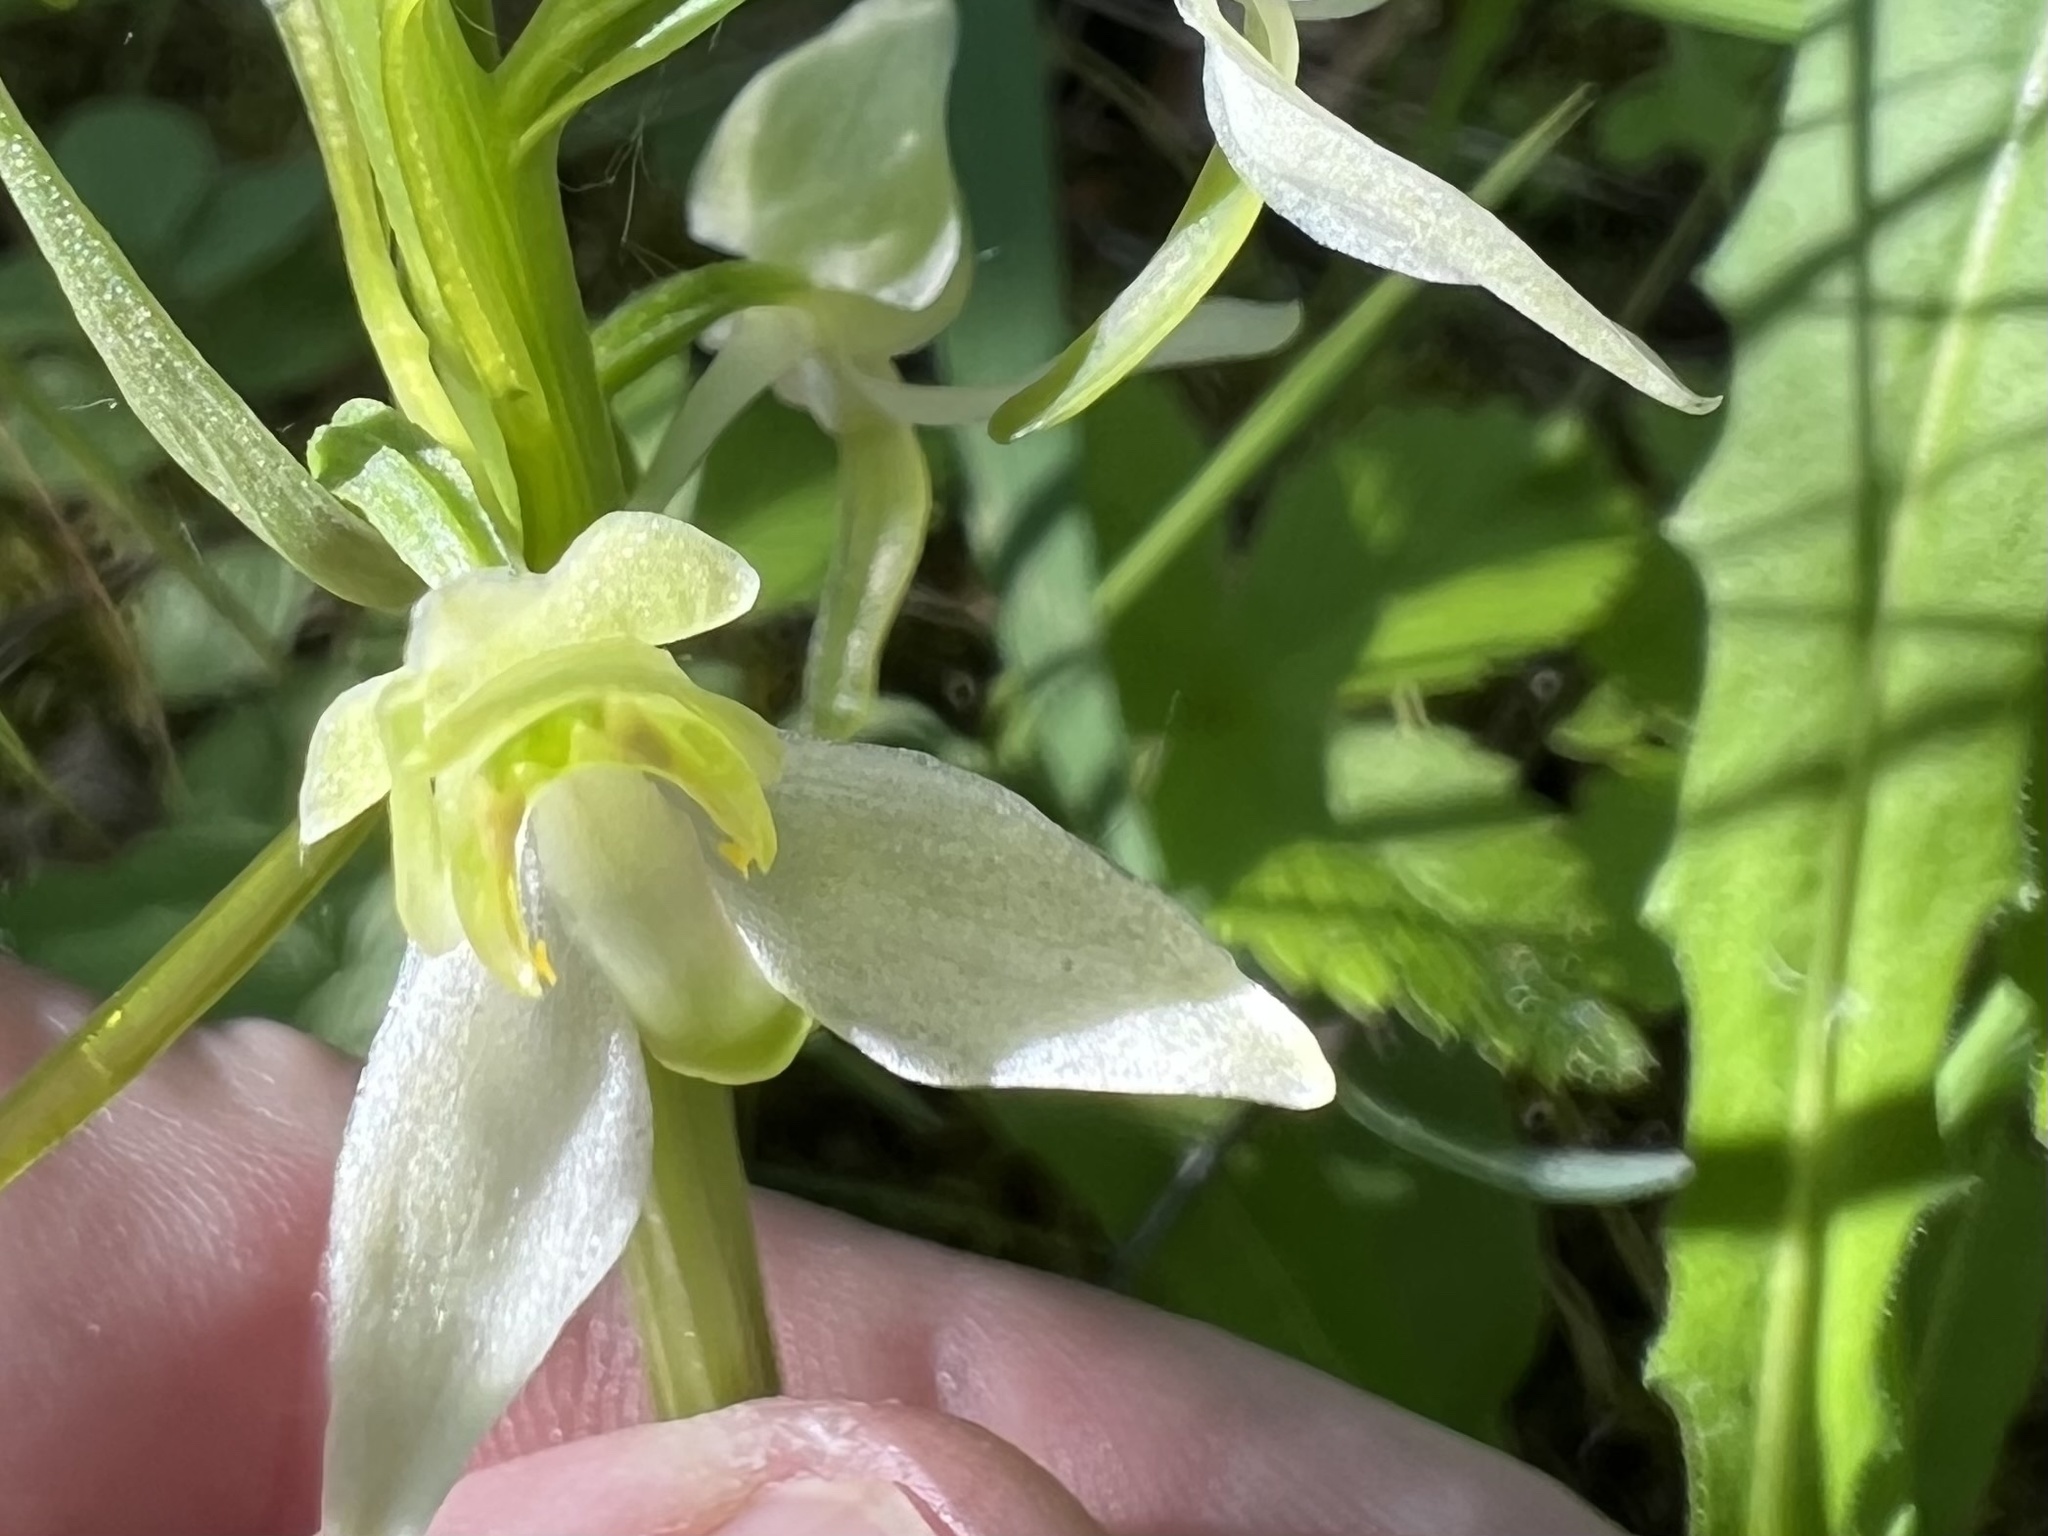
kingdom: Plantae
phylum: Tracheophyta
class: Liliopsida
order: Asparagales
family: Orchidaceae
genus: Platanthera
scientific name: Platanthera chlorantha
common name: Greater butterfly-orchid
